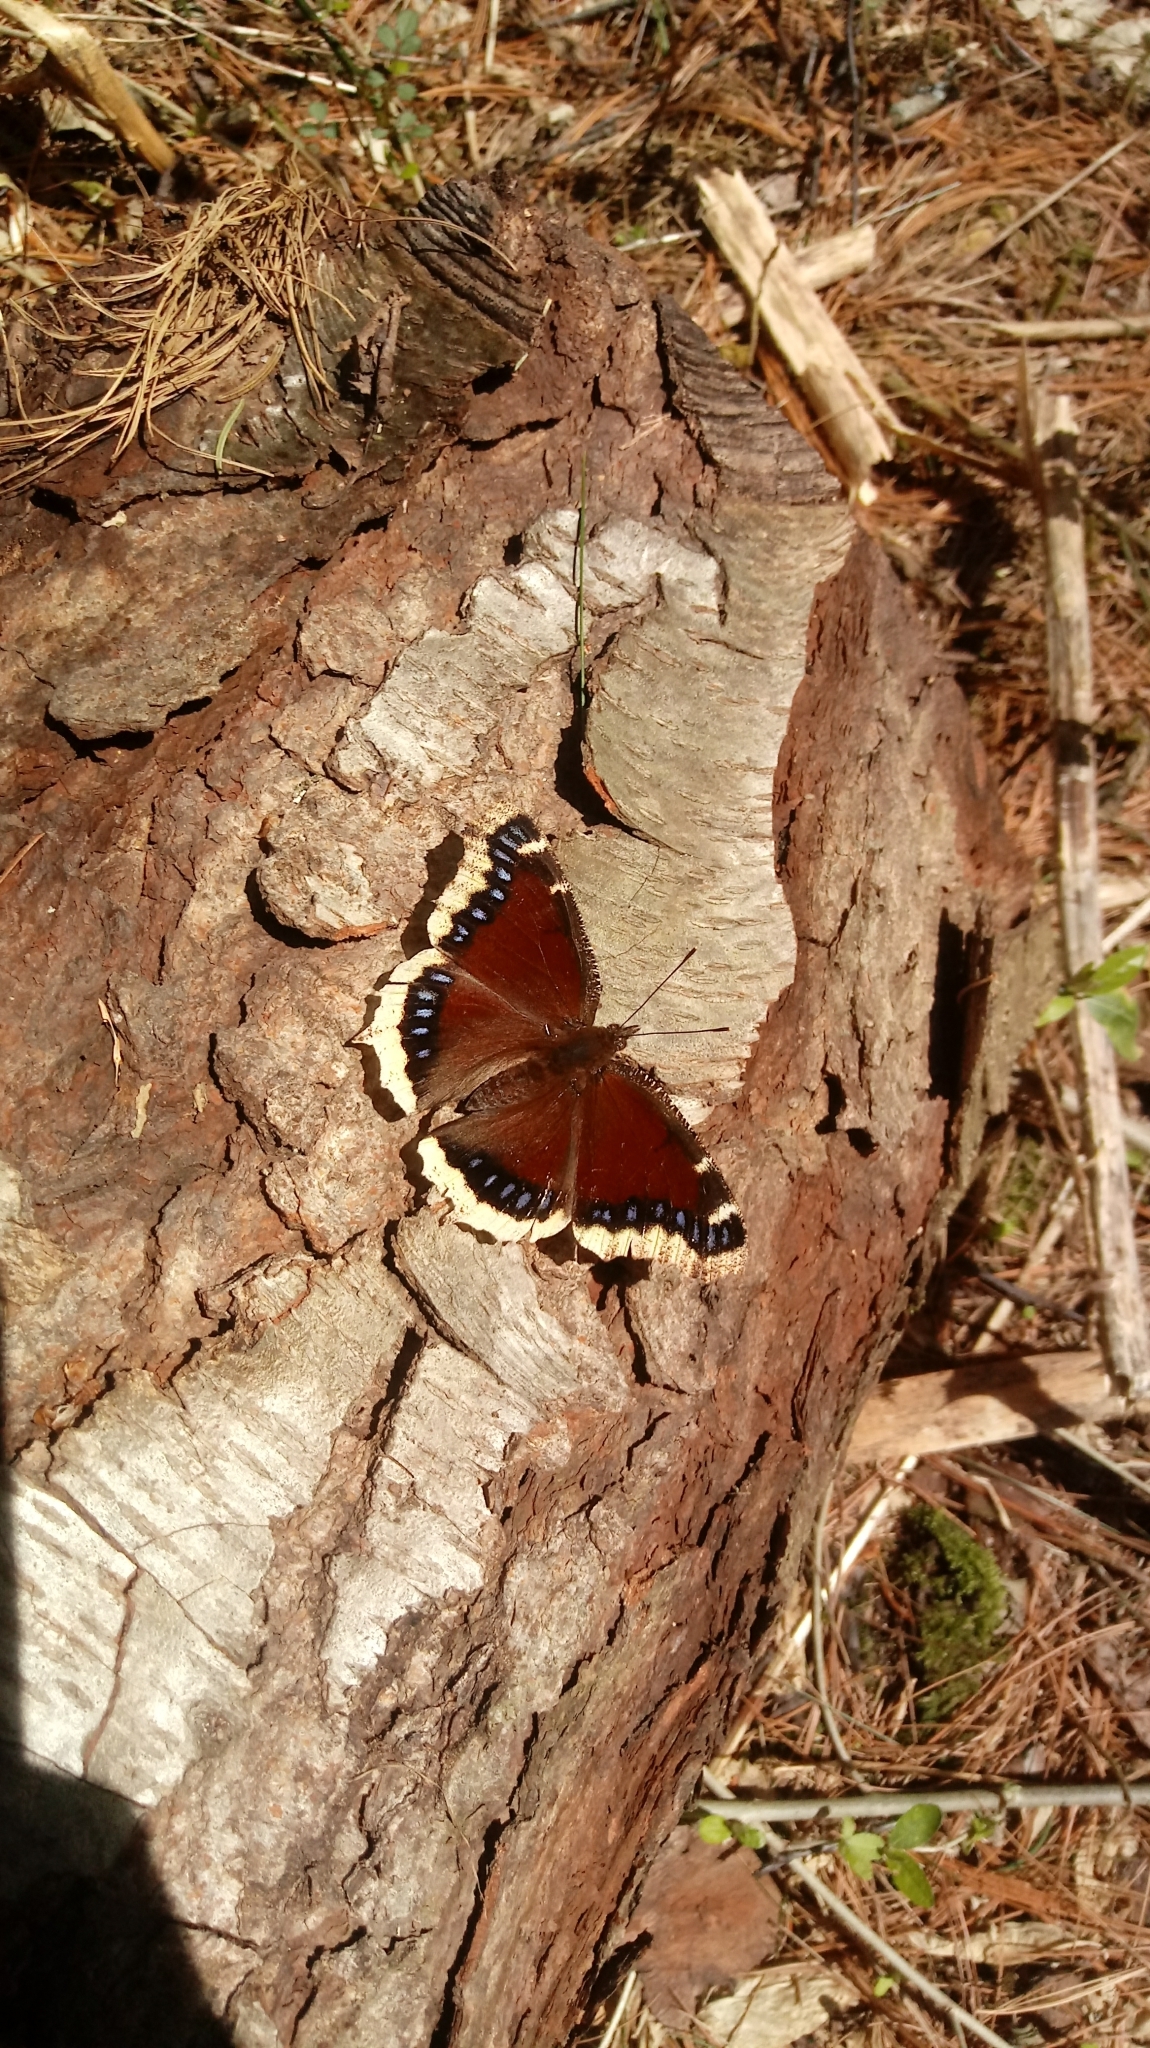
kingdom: Animalia
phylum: Arthropoda
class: Insecta
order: Lepidoptera
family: Nymphalidae
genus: Nymphalis
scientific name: Nymphalis antiopa
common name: Camberwell beauty
